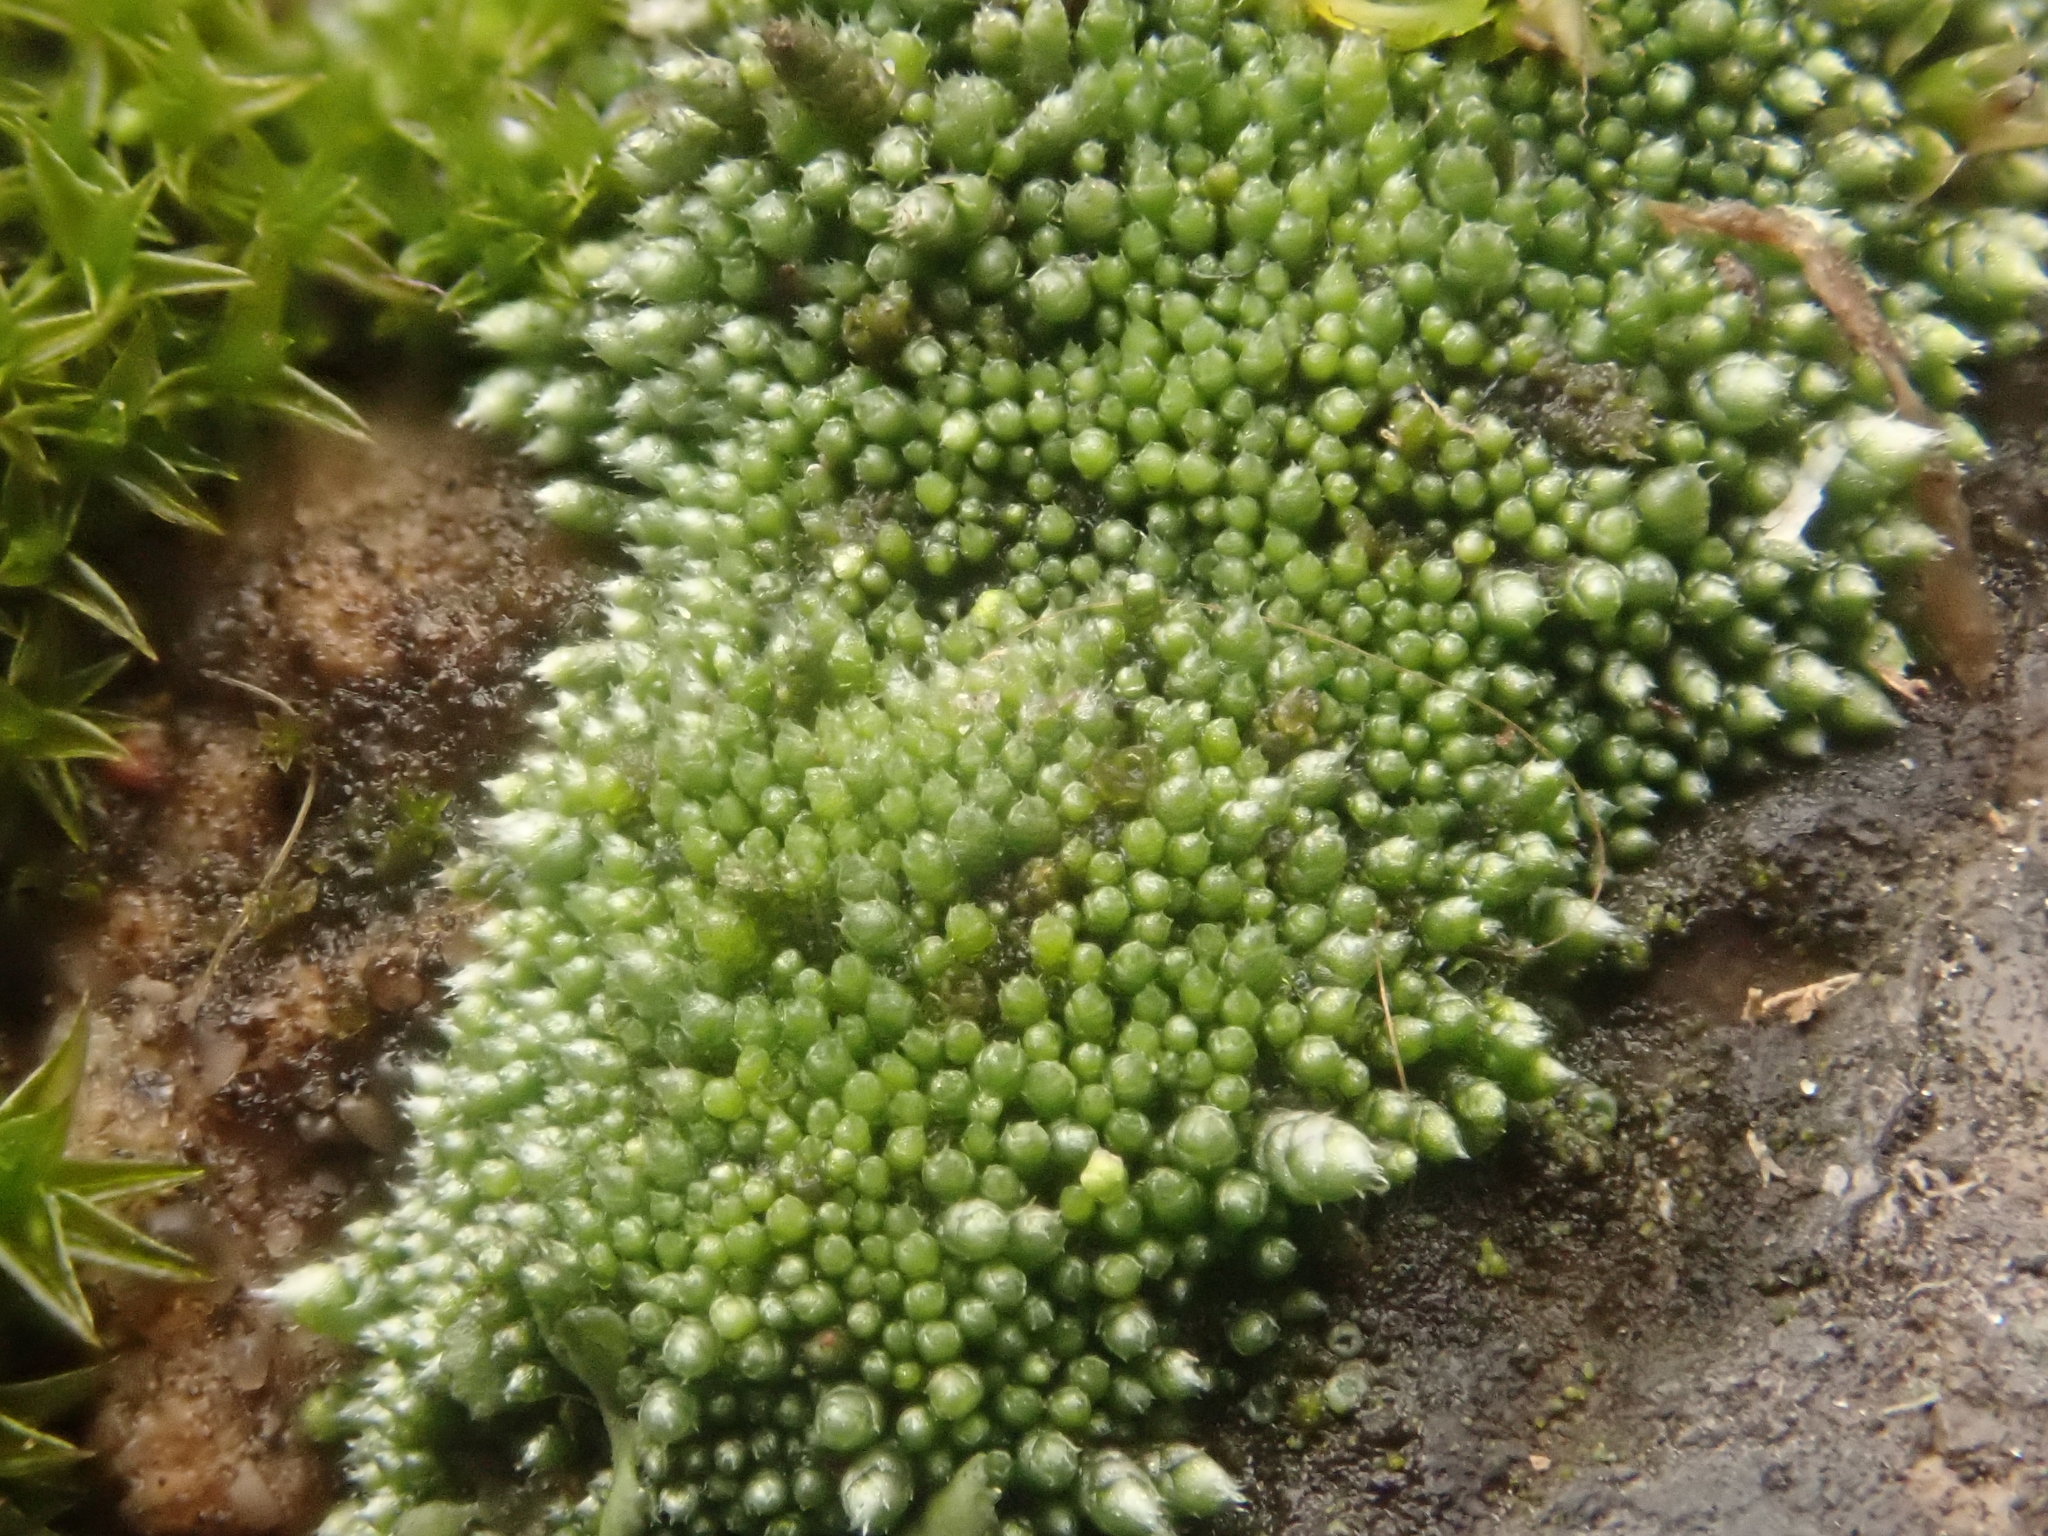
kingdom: Plantae
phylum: Bryophyta
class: Bryopsida
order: Bryales
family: Bryaceae
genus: Bryum
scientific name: Bryum argenteum
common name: Silver-moss
